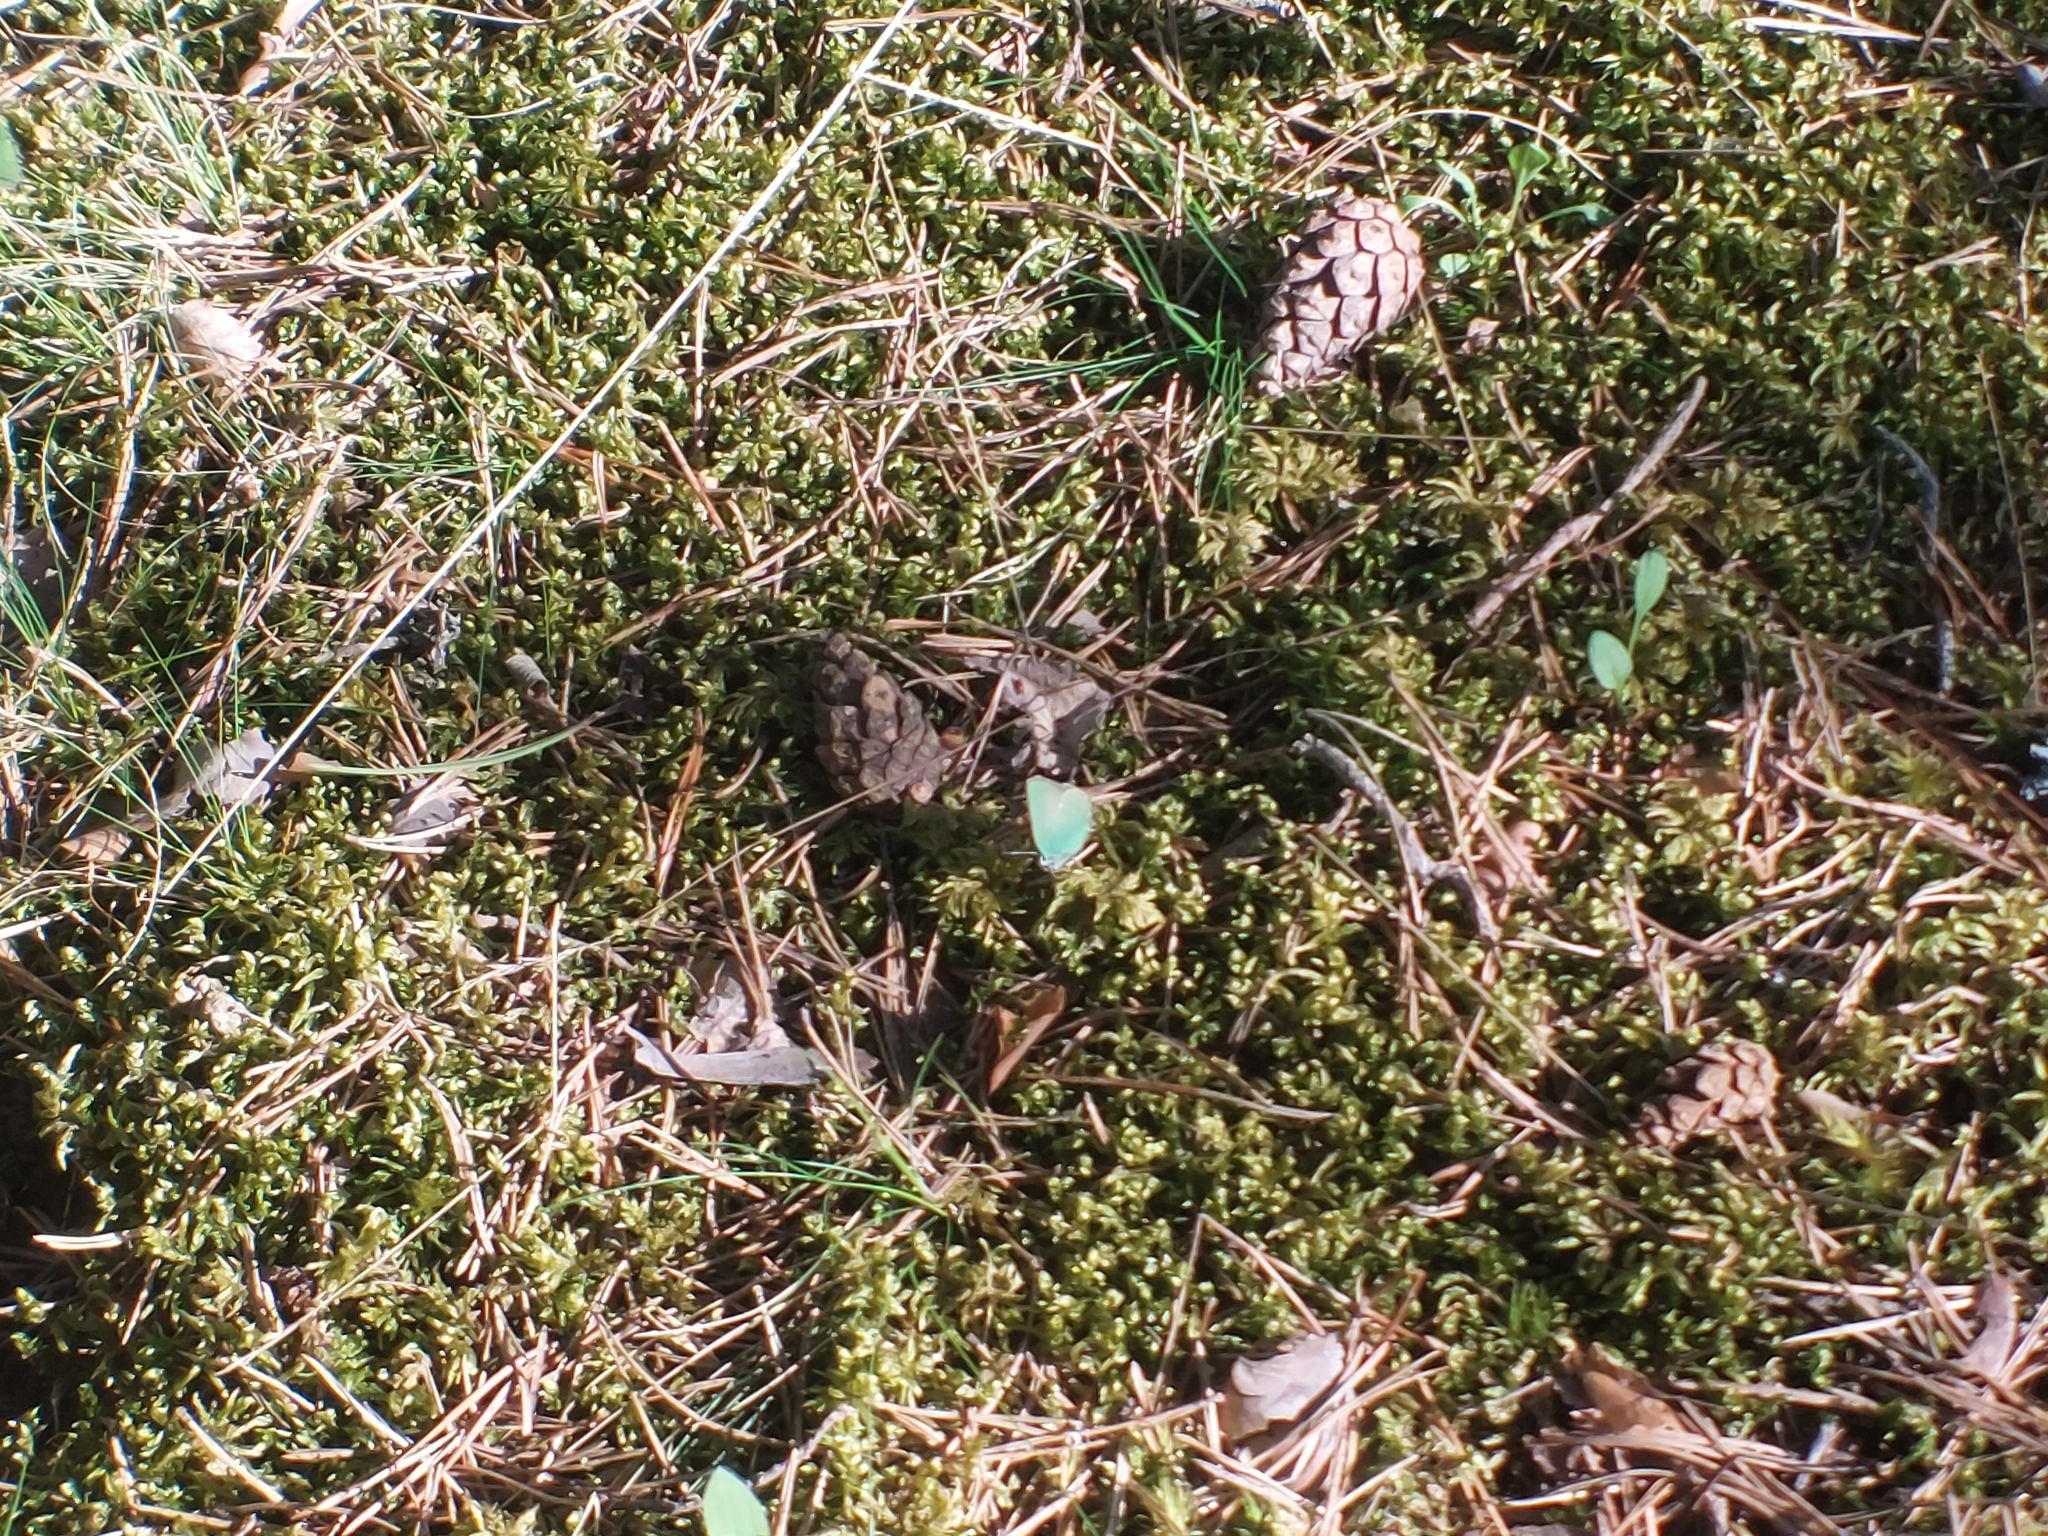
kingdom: Animalia
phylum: Arthropoda
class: Insecta
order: Lepidoptera
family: Lycaenidae
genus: Callophrys
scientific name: Callophrys rubi
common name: Green hairstreak
